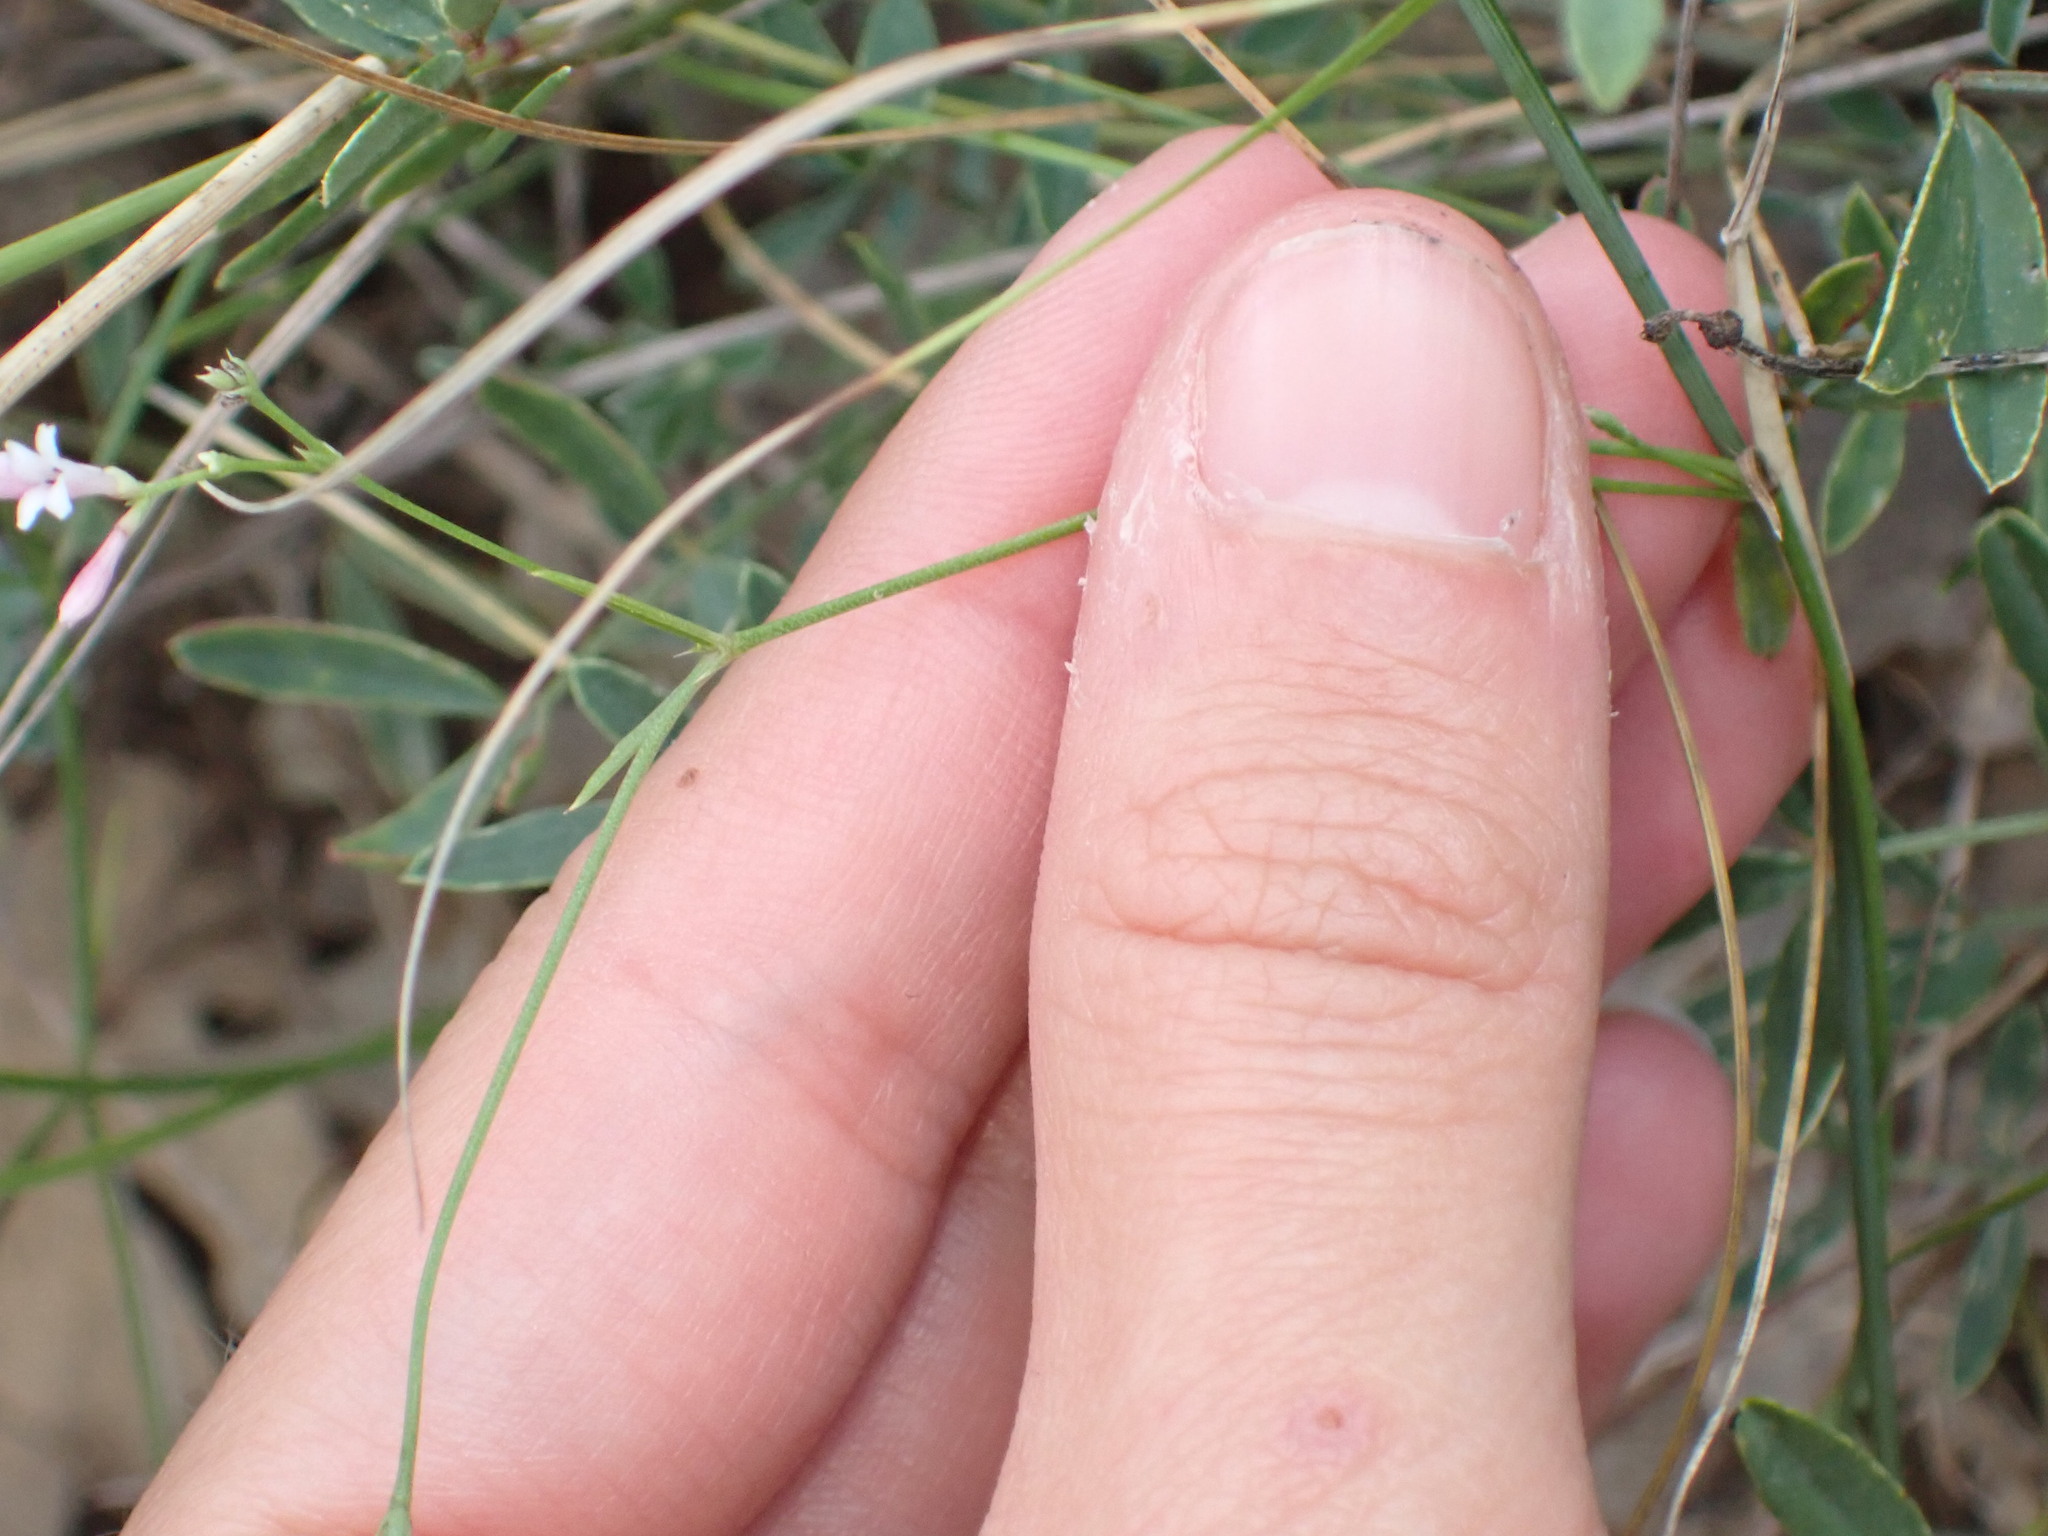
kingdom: Plantae
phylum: Tracheophyta
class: Magnoliopsida
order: Gentianales
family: Rubiaceae
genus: Cynanchica
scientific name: Cynanchica pyrenaica
